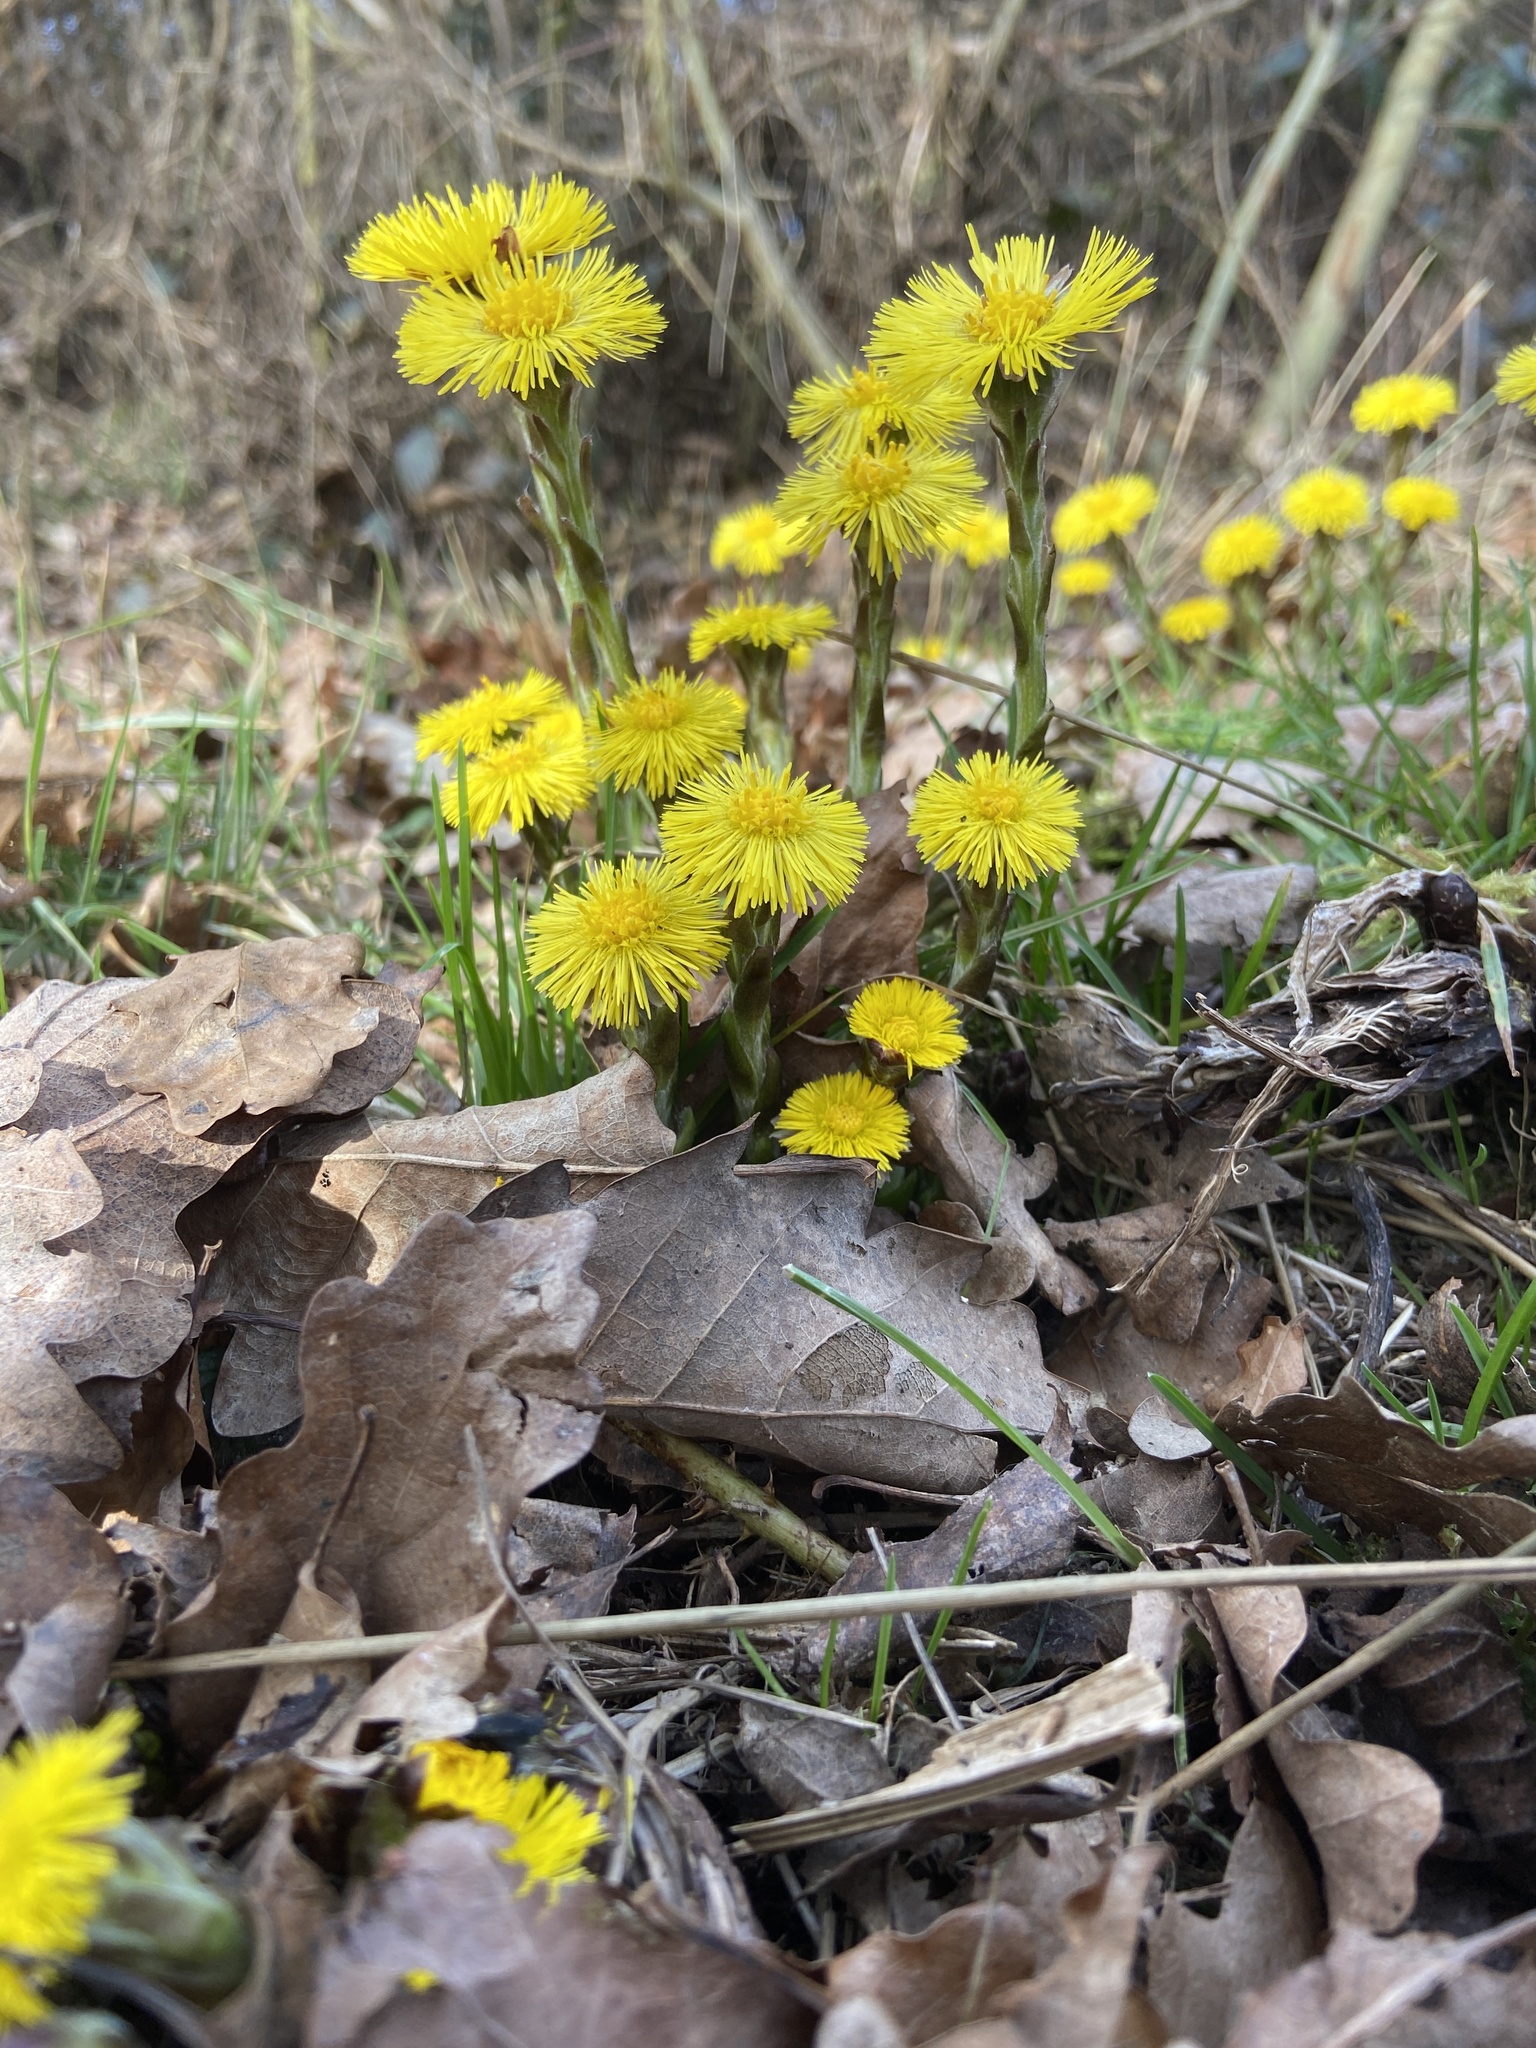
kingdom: Plantae
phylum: Tracheophyta
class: Magnoliopsida
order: Asterales
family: Asteraceae
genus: Tussilago
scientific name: Tussilago farfara
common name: Coltsfoot
